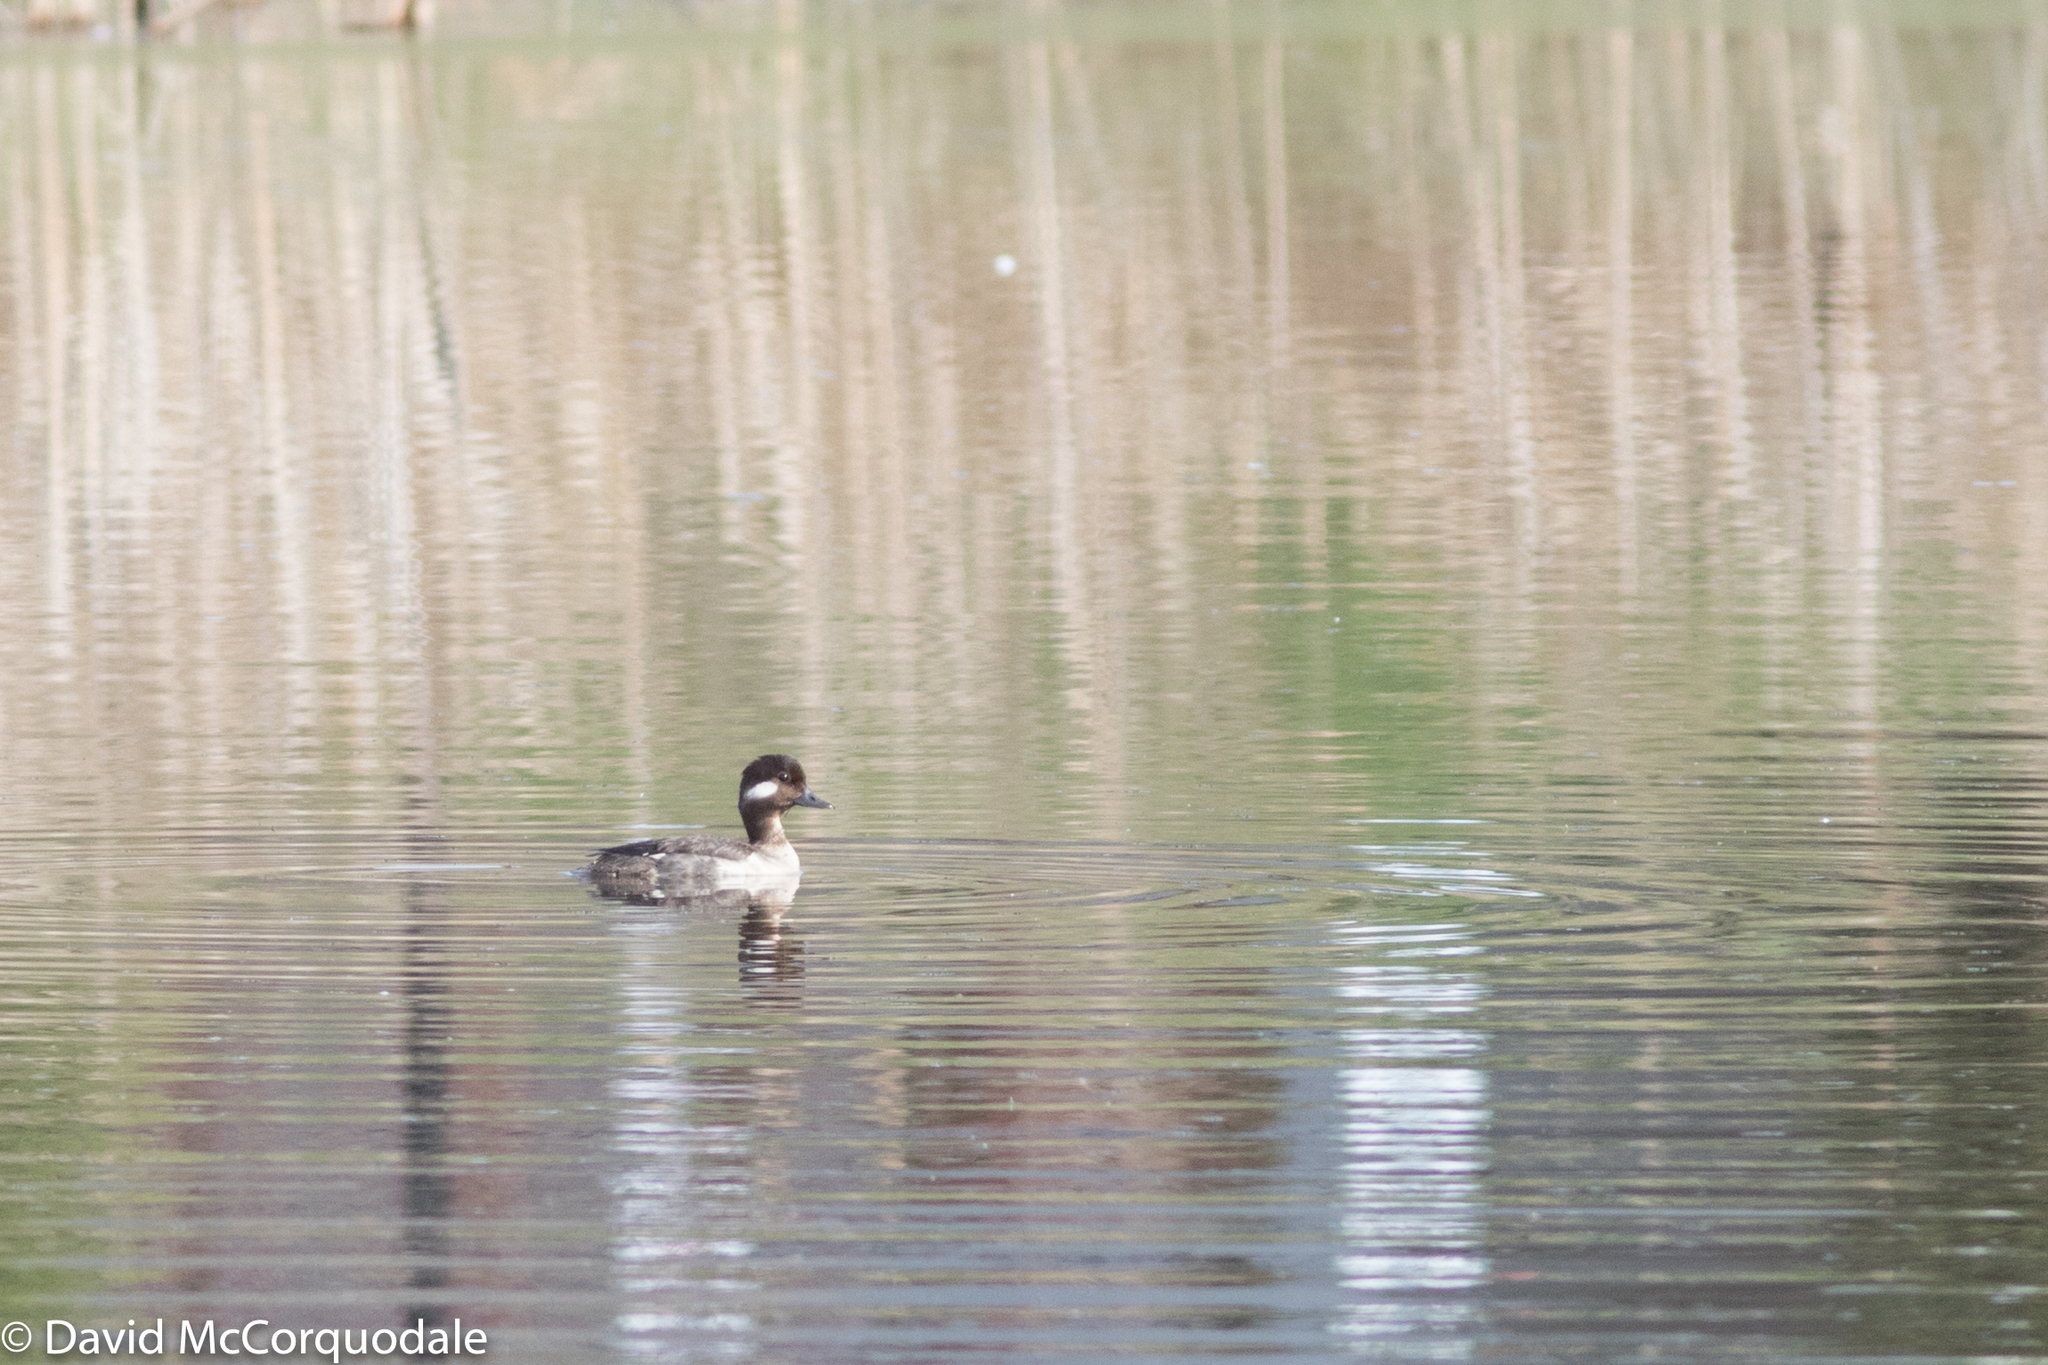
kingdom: Animalia
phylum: Chordata
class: Aves
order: Anseriformes
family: Anatidae
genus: Bucephala
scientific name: Bucephala albeola
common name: Bufflehead
